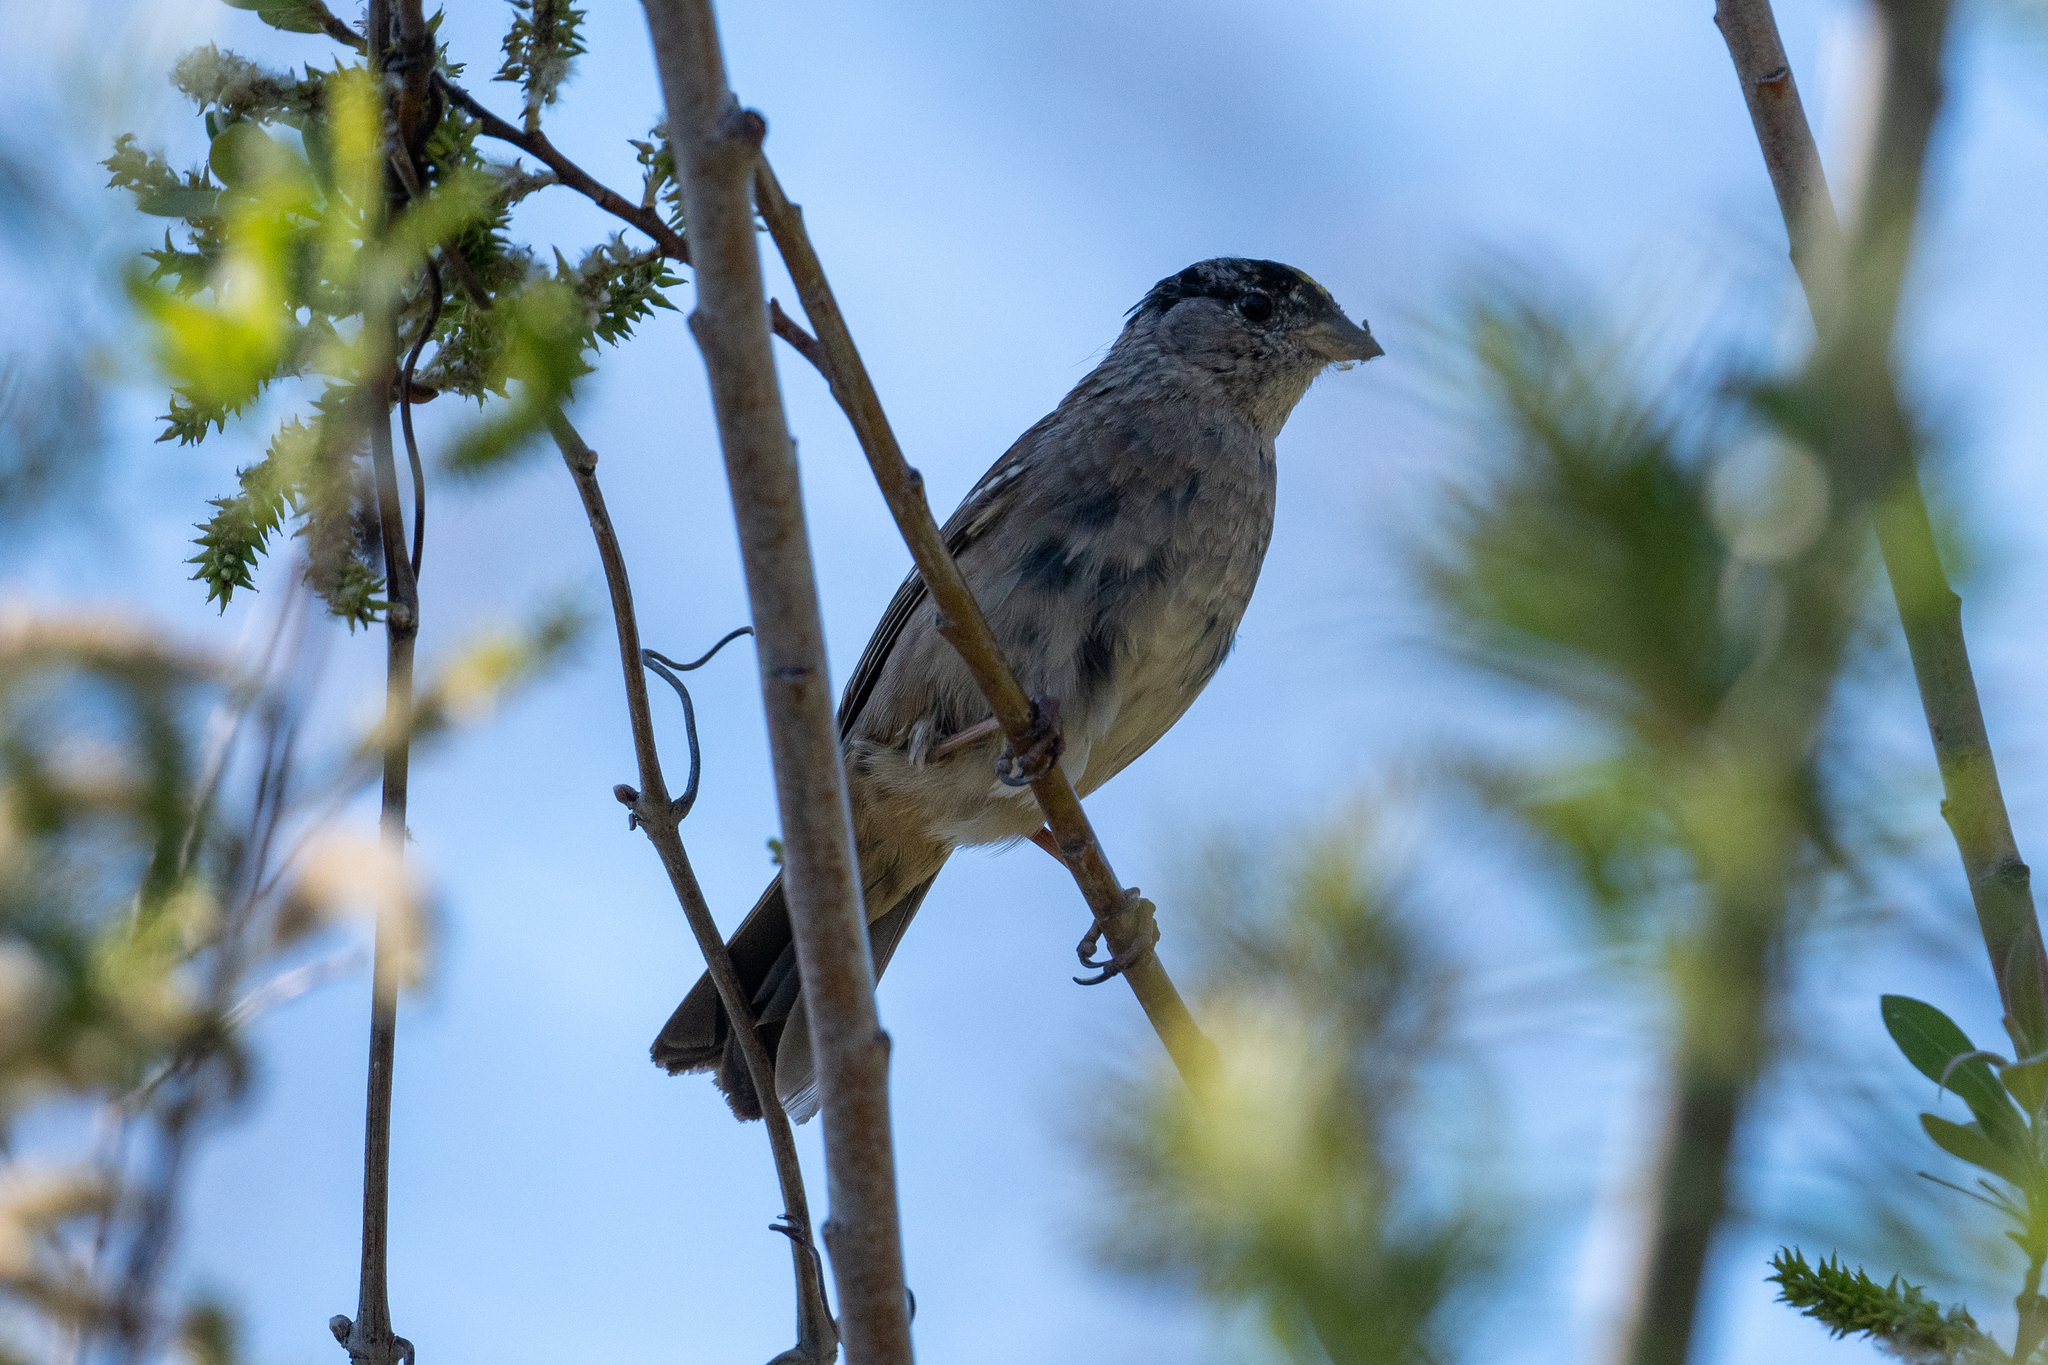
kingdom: Animalia
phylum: Chordata
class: Aves
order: Passeriformes
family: Passerellidae
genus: Zonotrichia
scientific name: Zonotrichia atricapilla
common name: Golden-crowned sparrow
